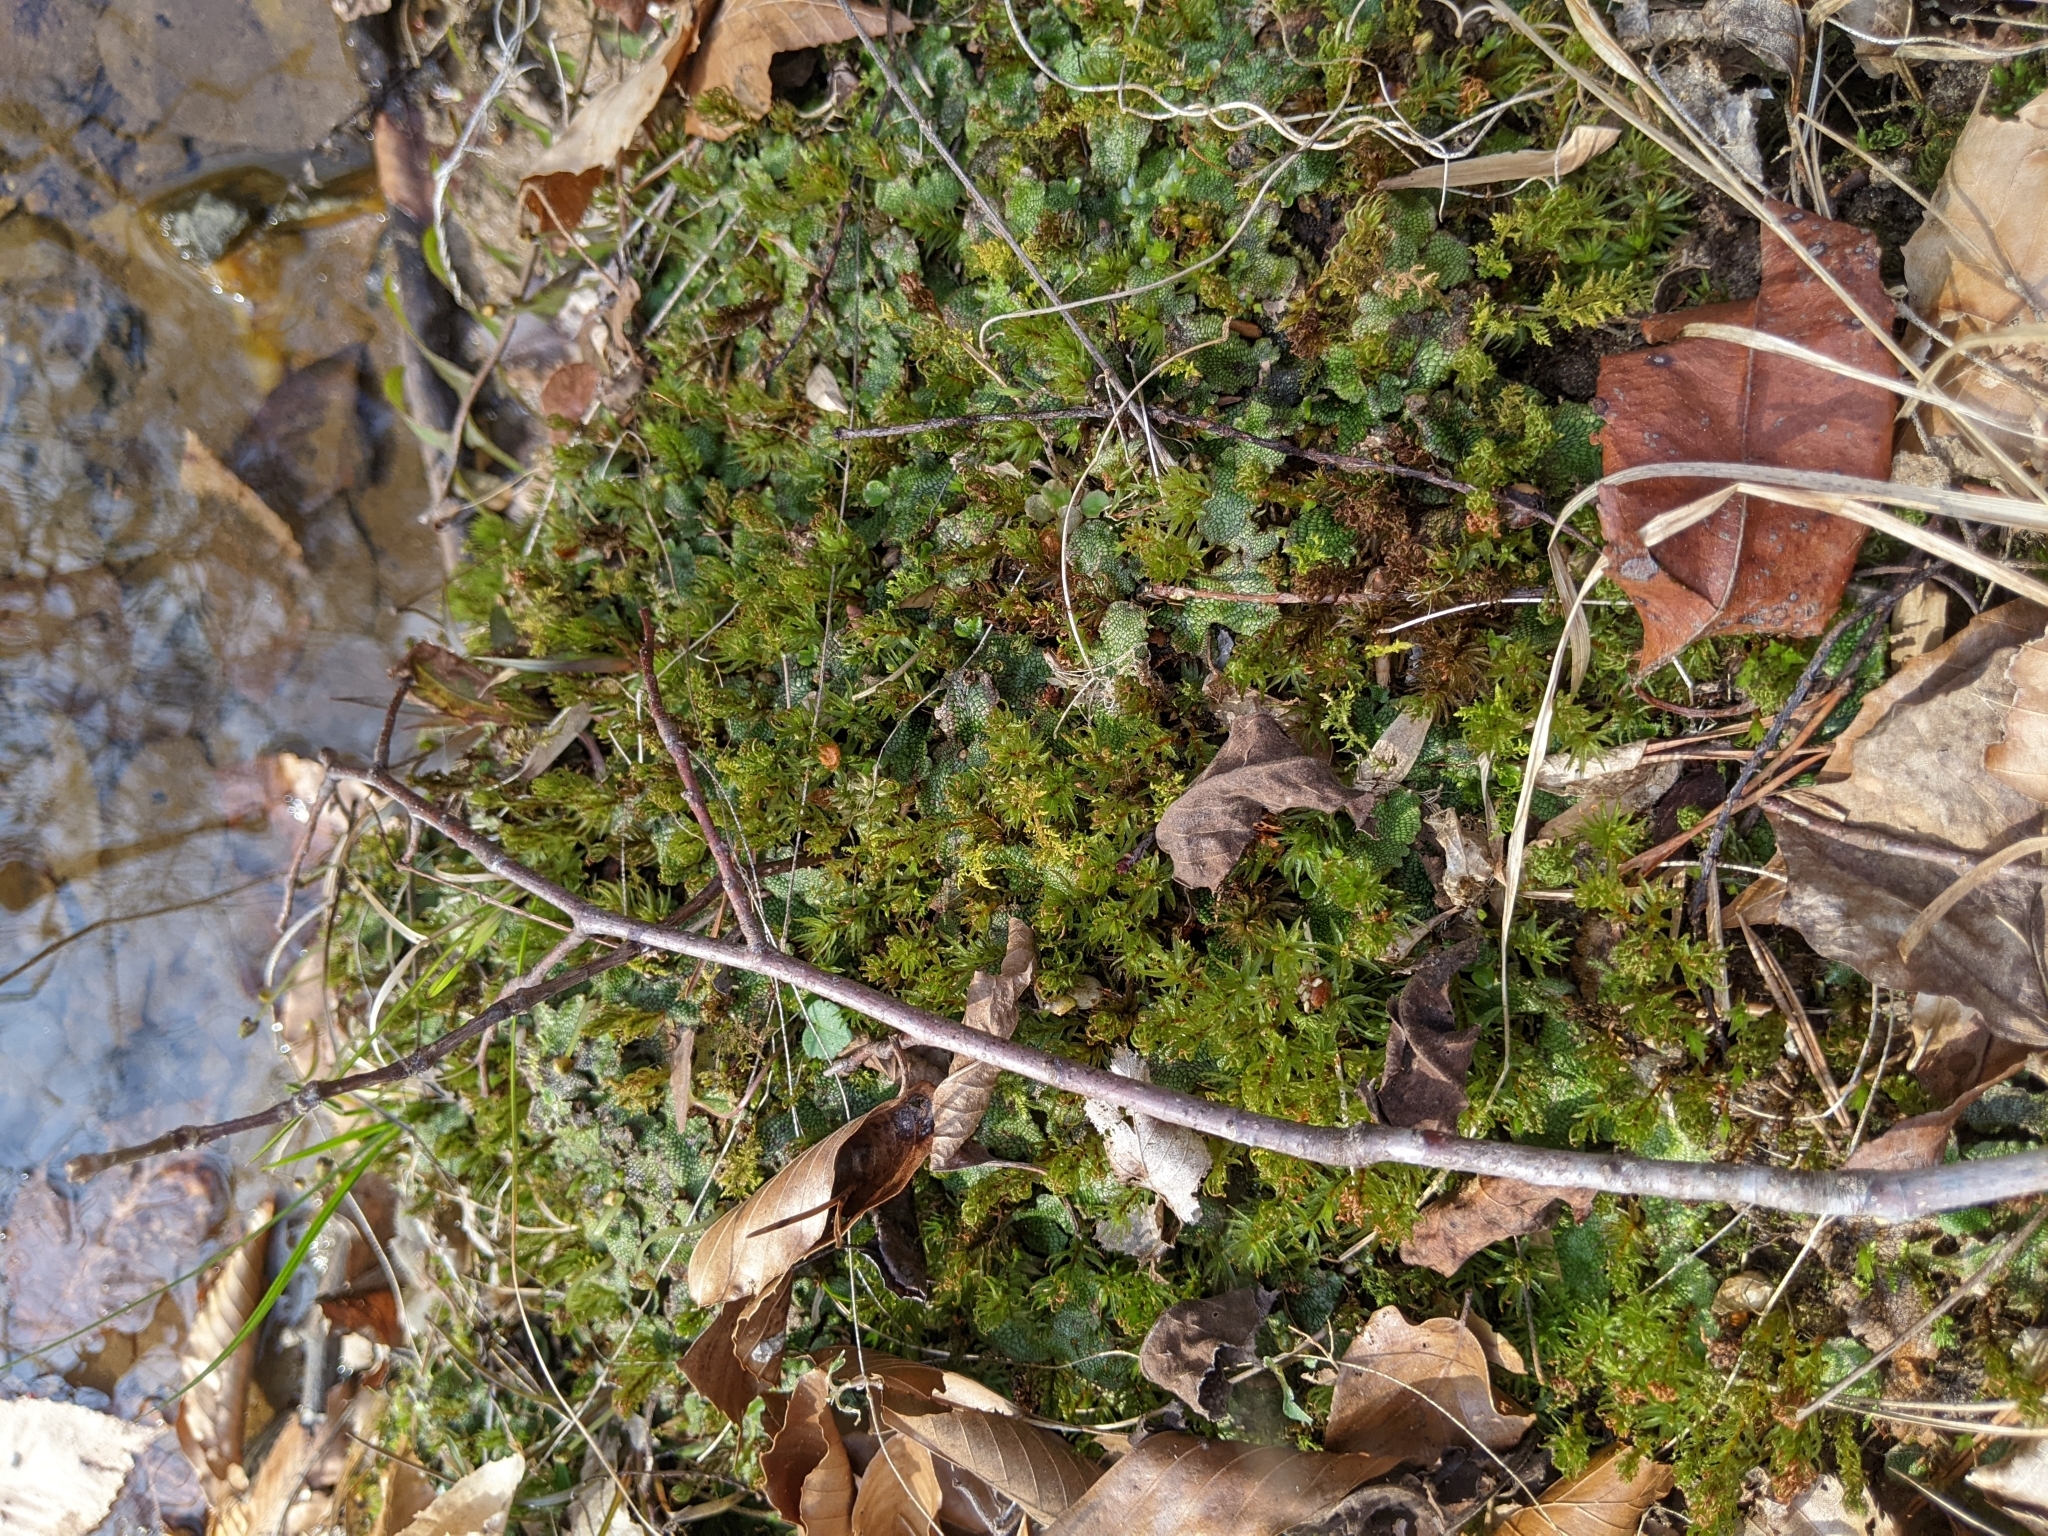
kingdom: Plantae
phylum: Marchantiophyta
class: Marchantiopsida
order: Marchantiales
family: Conocephalaceae
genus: Conocephalum
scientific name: Conocephalum salebrosum
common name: Cat-tongue liverwort
